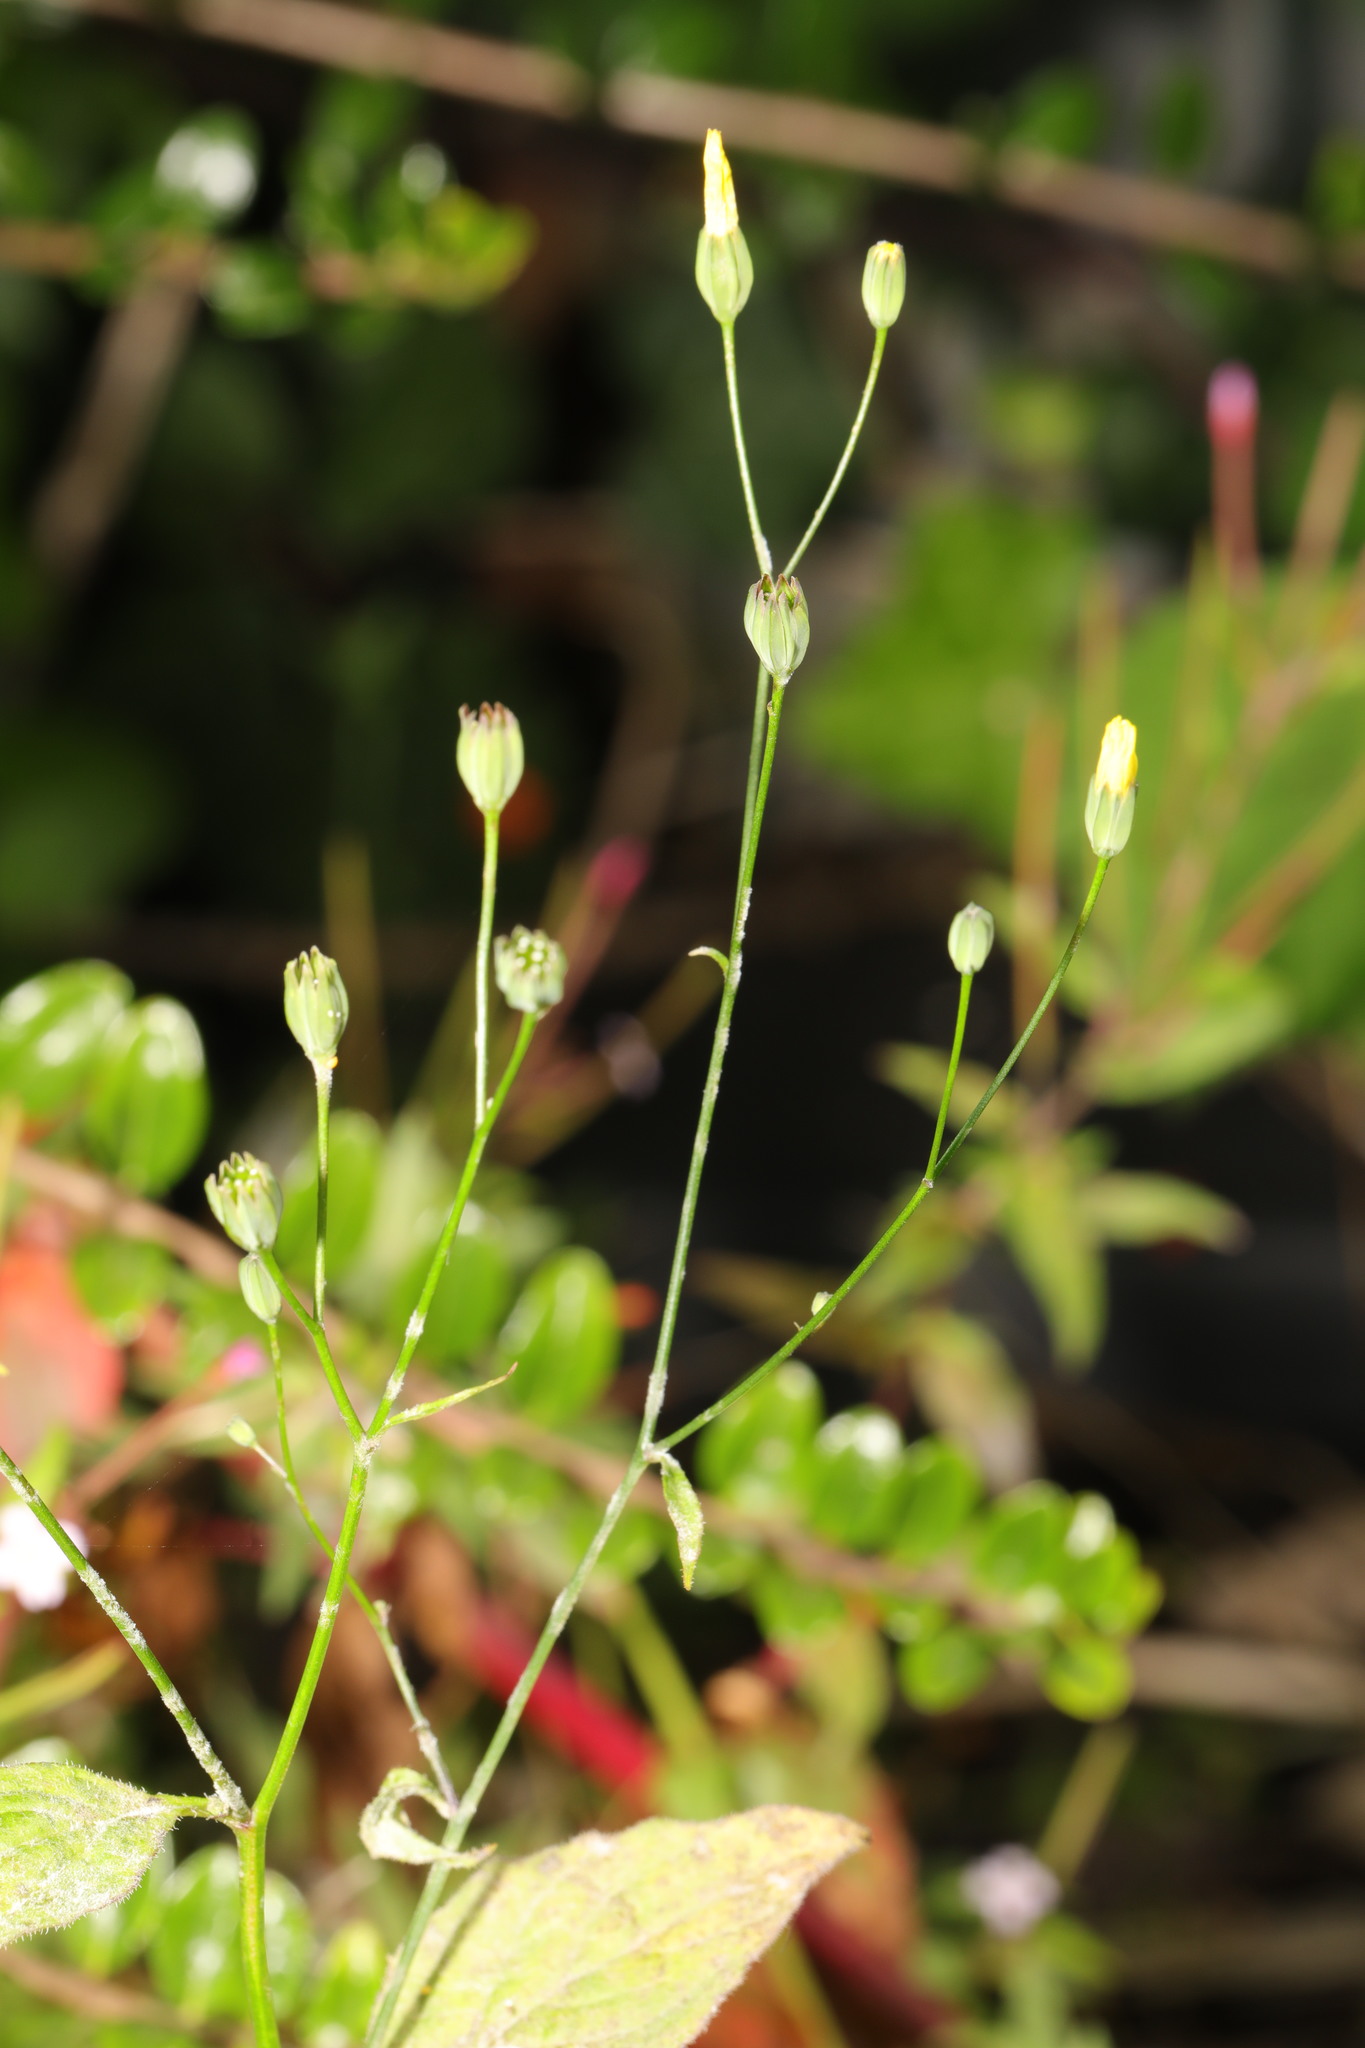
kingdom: Plantae
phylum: Tracheophyta
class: Magnoliopsida
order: Asterales
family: Asteraceae
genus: Lapsana
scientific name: Lapsana communis
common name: Nipplewort
